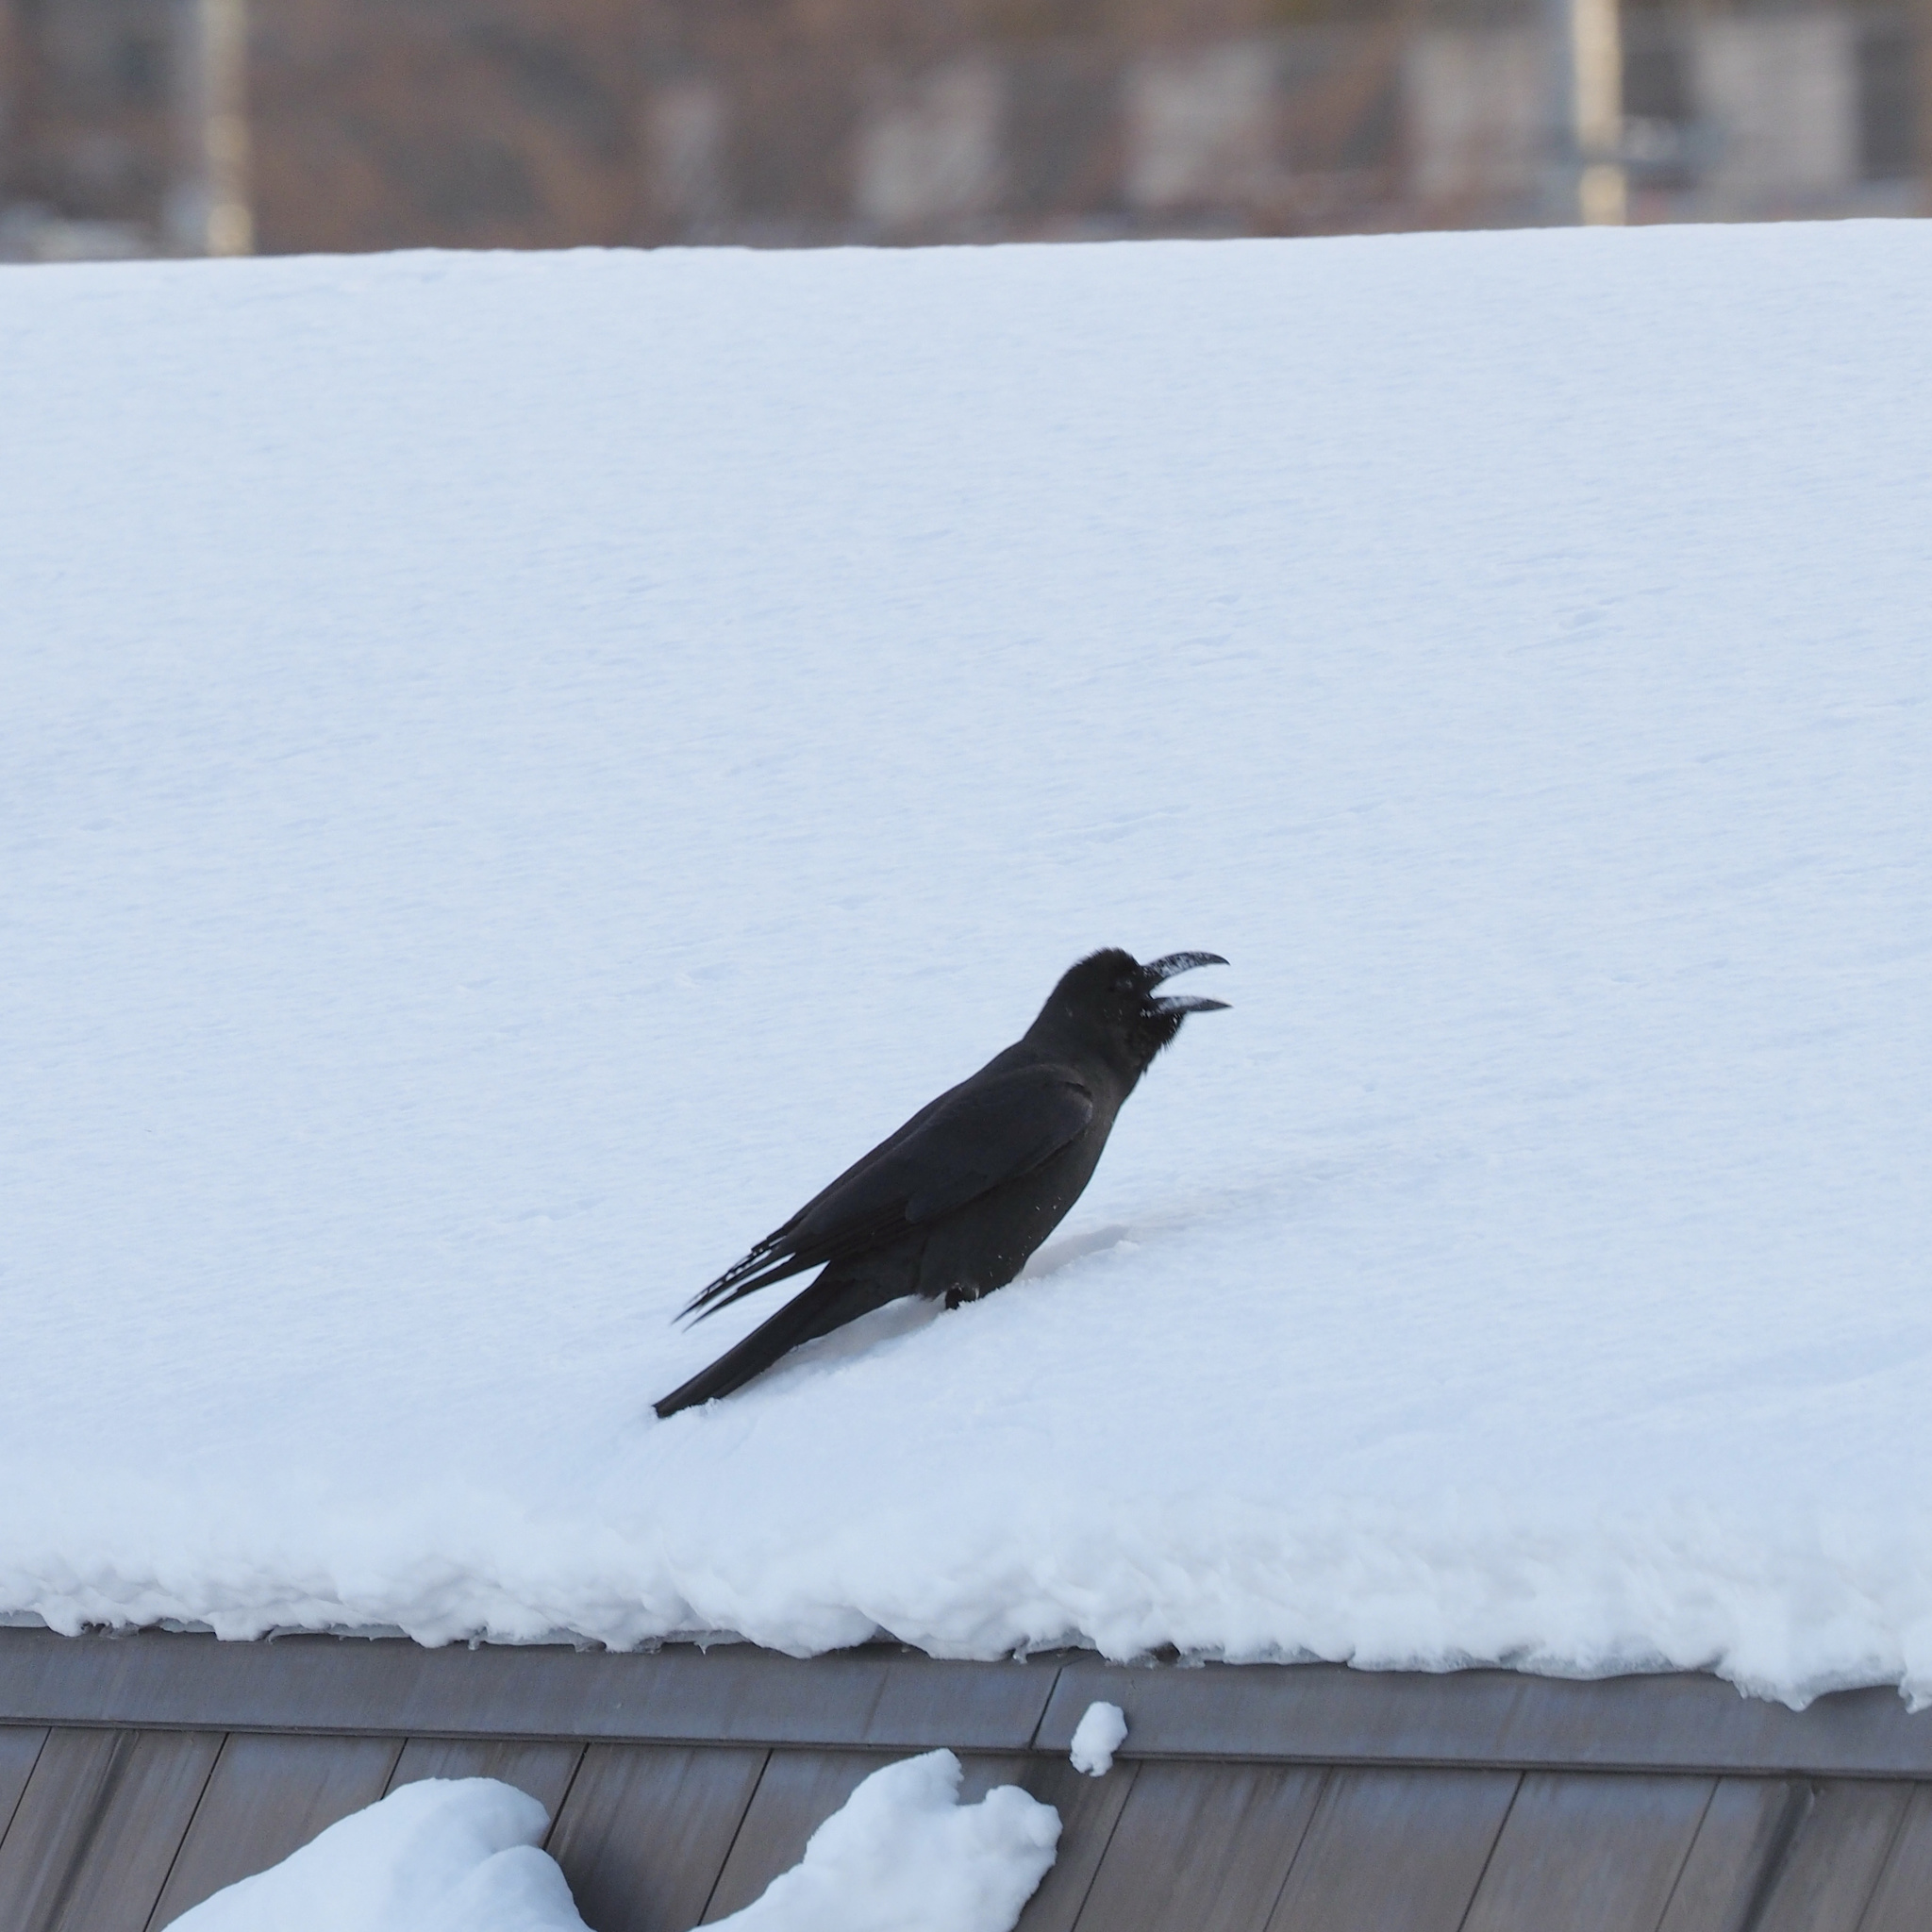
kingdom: Animalia
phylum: Chordata
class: Aves
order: Passeriformes
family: Corvidae
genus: Corvus
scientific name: Corvus macrorhynchos
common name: Large-billed crow
